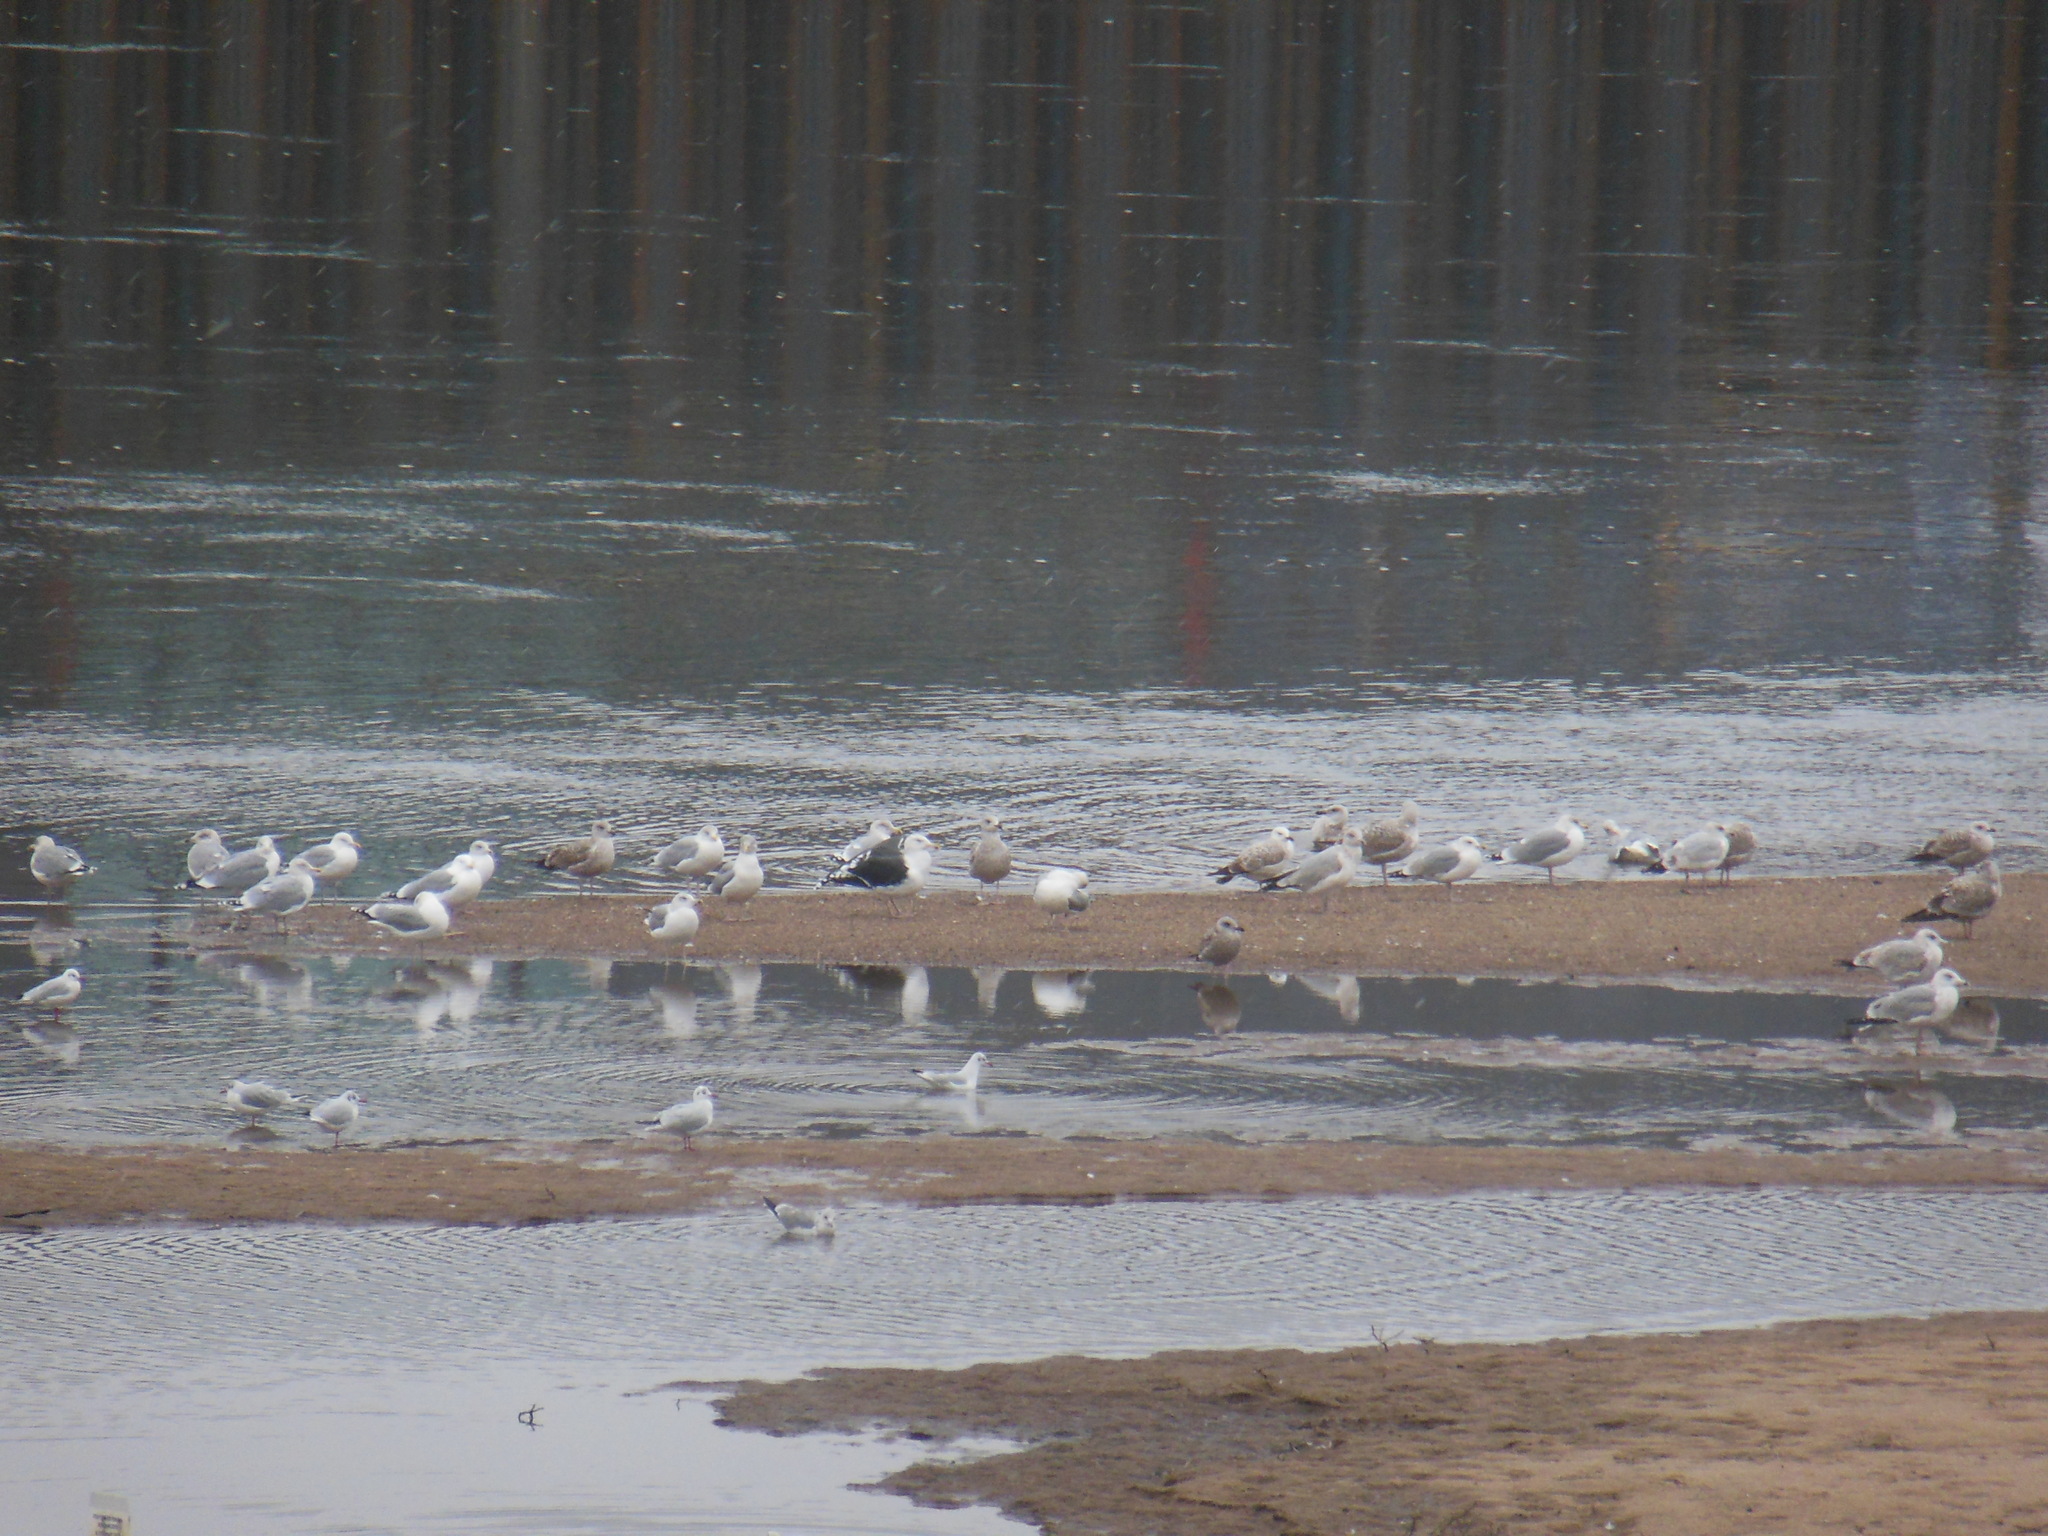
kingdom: Animalia
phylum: Chordata
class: Aves
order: Charadriiformes
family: Laridae
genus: Larus
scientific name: Larus canus
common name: Mew gull
